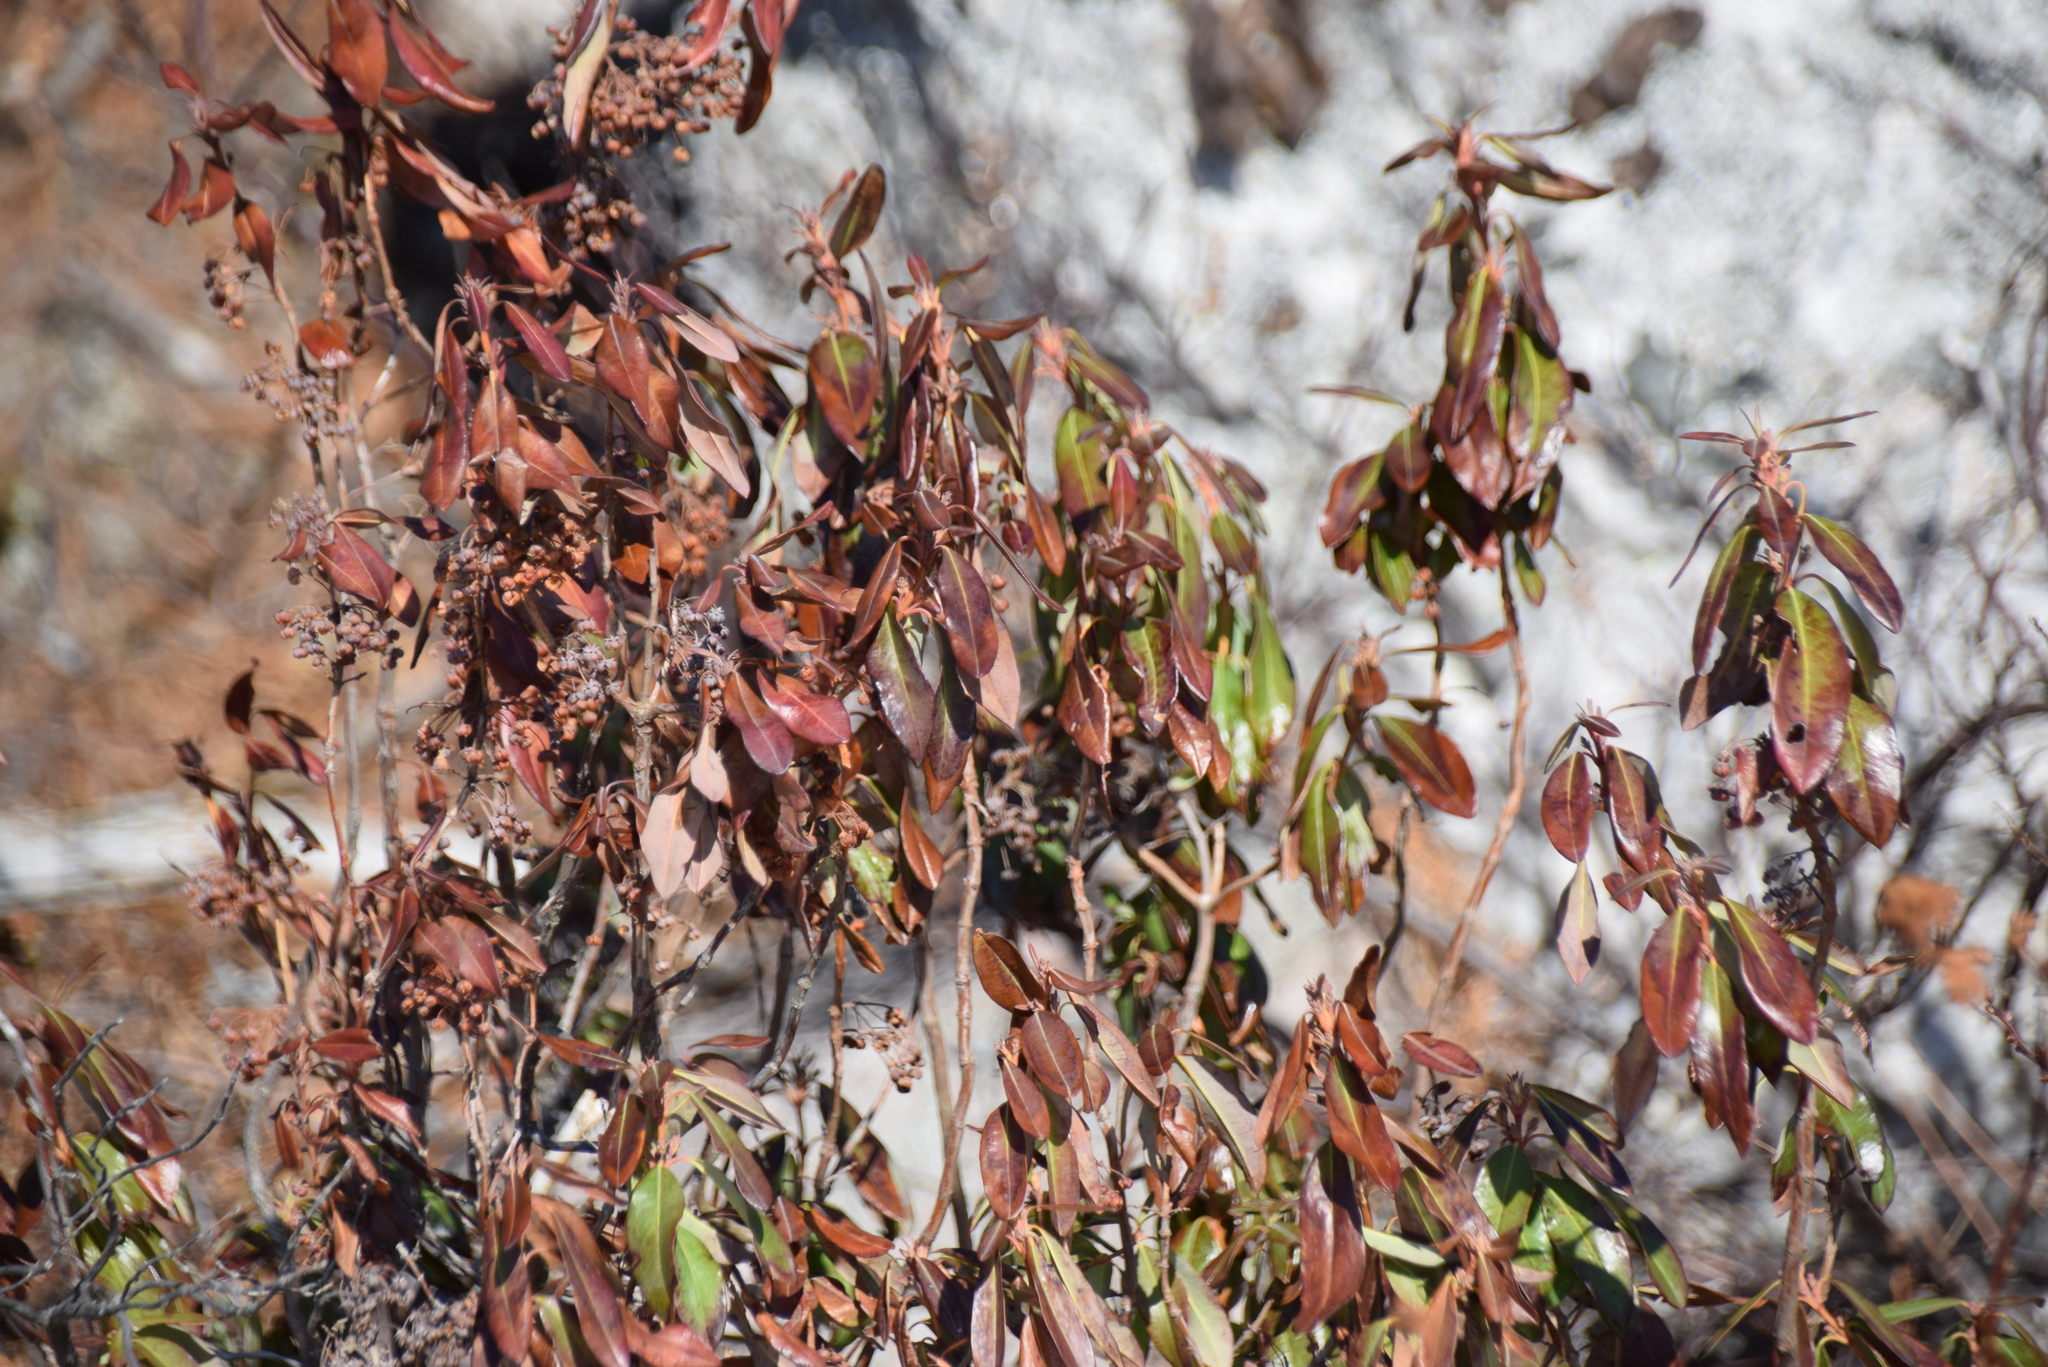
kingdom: Plantae
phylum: Tracheophyta
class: Magnoliopsida
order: Ericales
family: Ericaceae
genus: Kalmia
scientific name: Kalmia angustifolia
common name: Sheep-laurel
